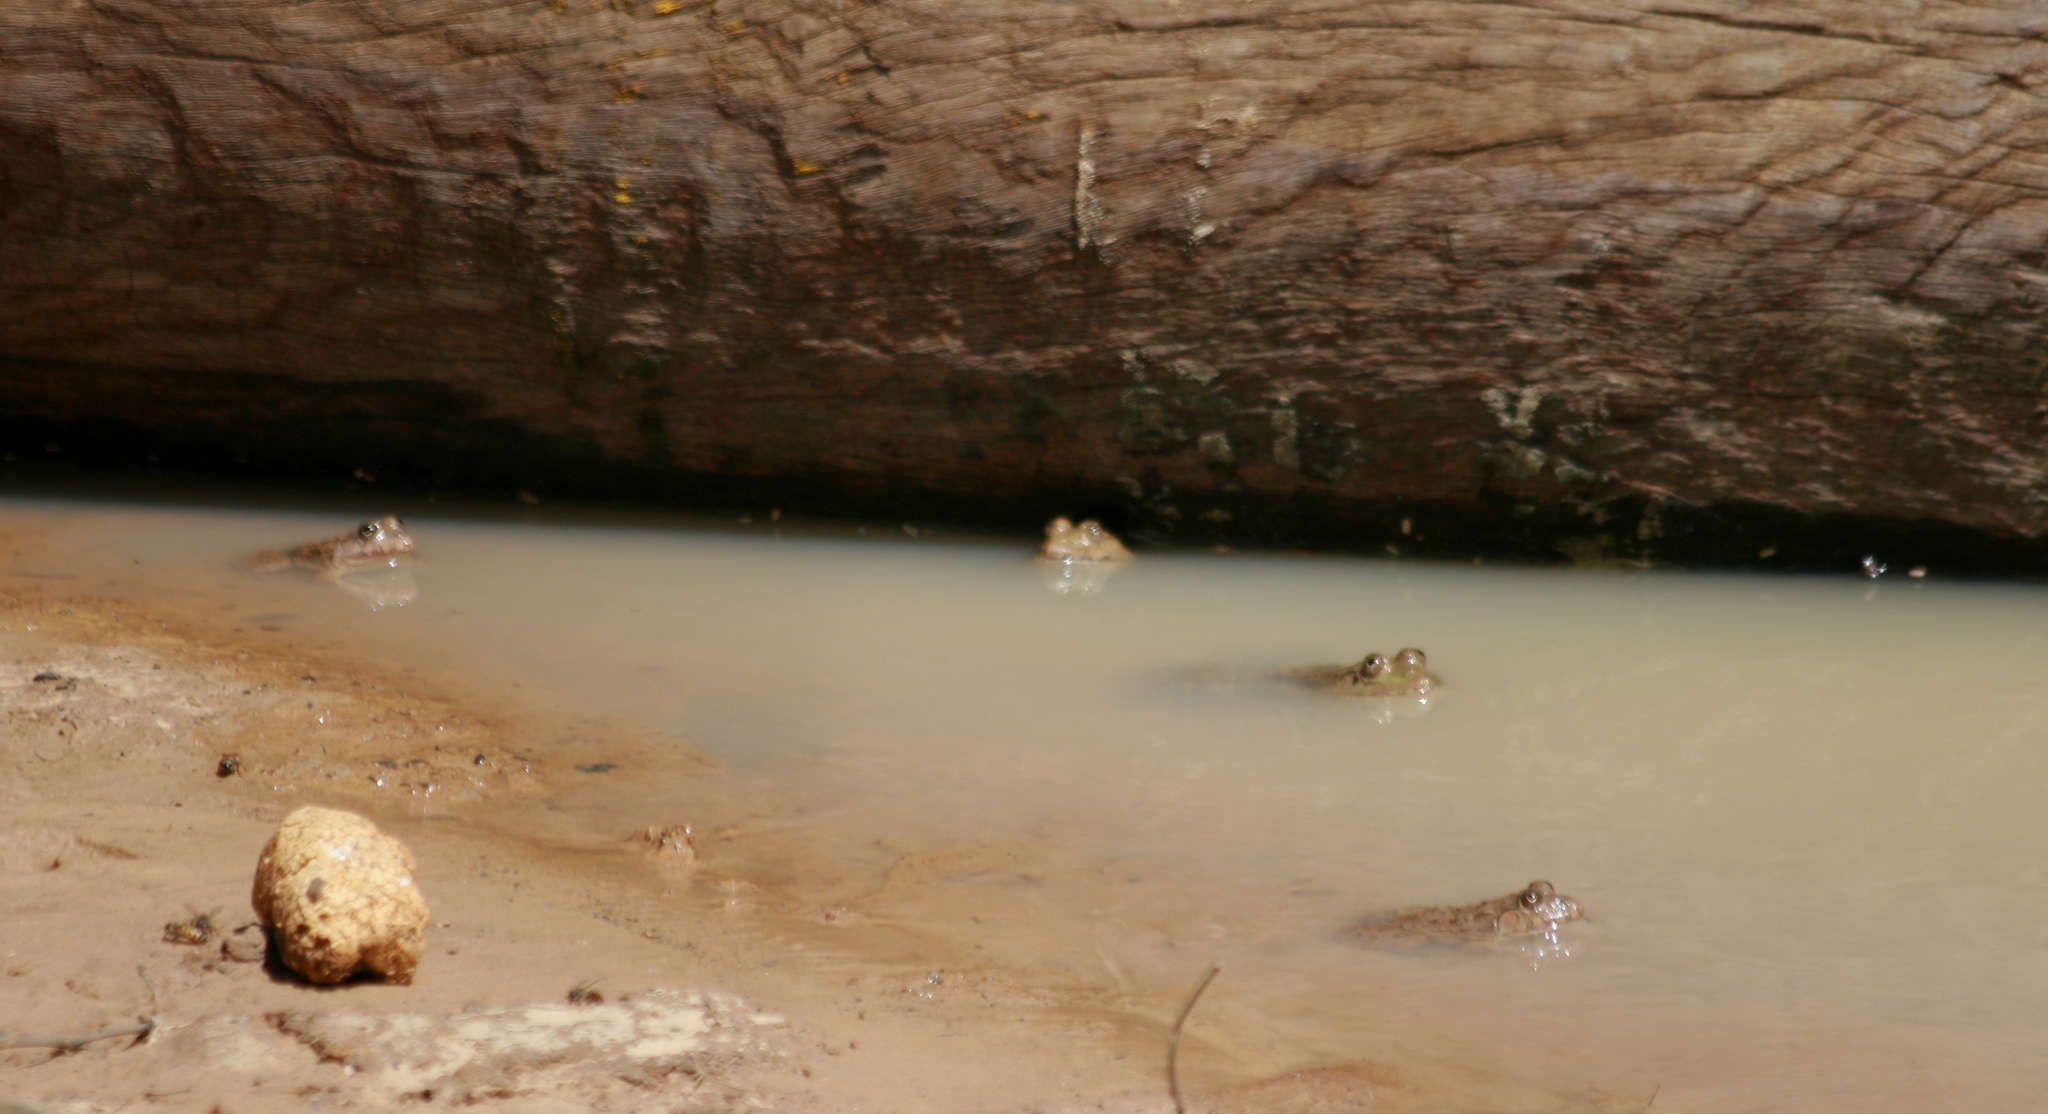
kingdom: Animalia
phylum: Chordata
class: Amphibia
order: Anura
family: Dicroglossidae
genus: Hoplobatrachus
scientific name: Hoplobatrachus occipitalis
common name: Eastern groove-crowned bullfrog
